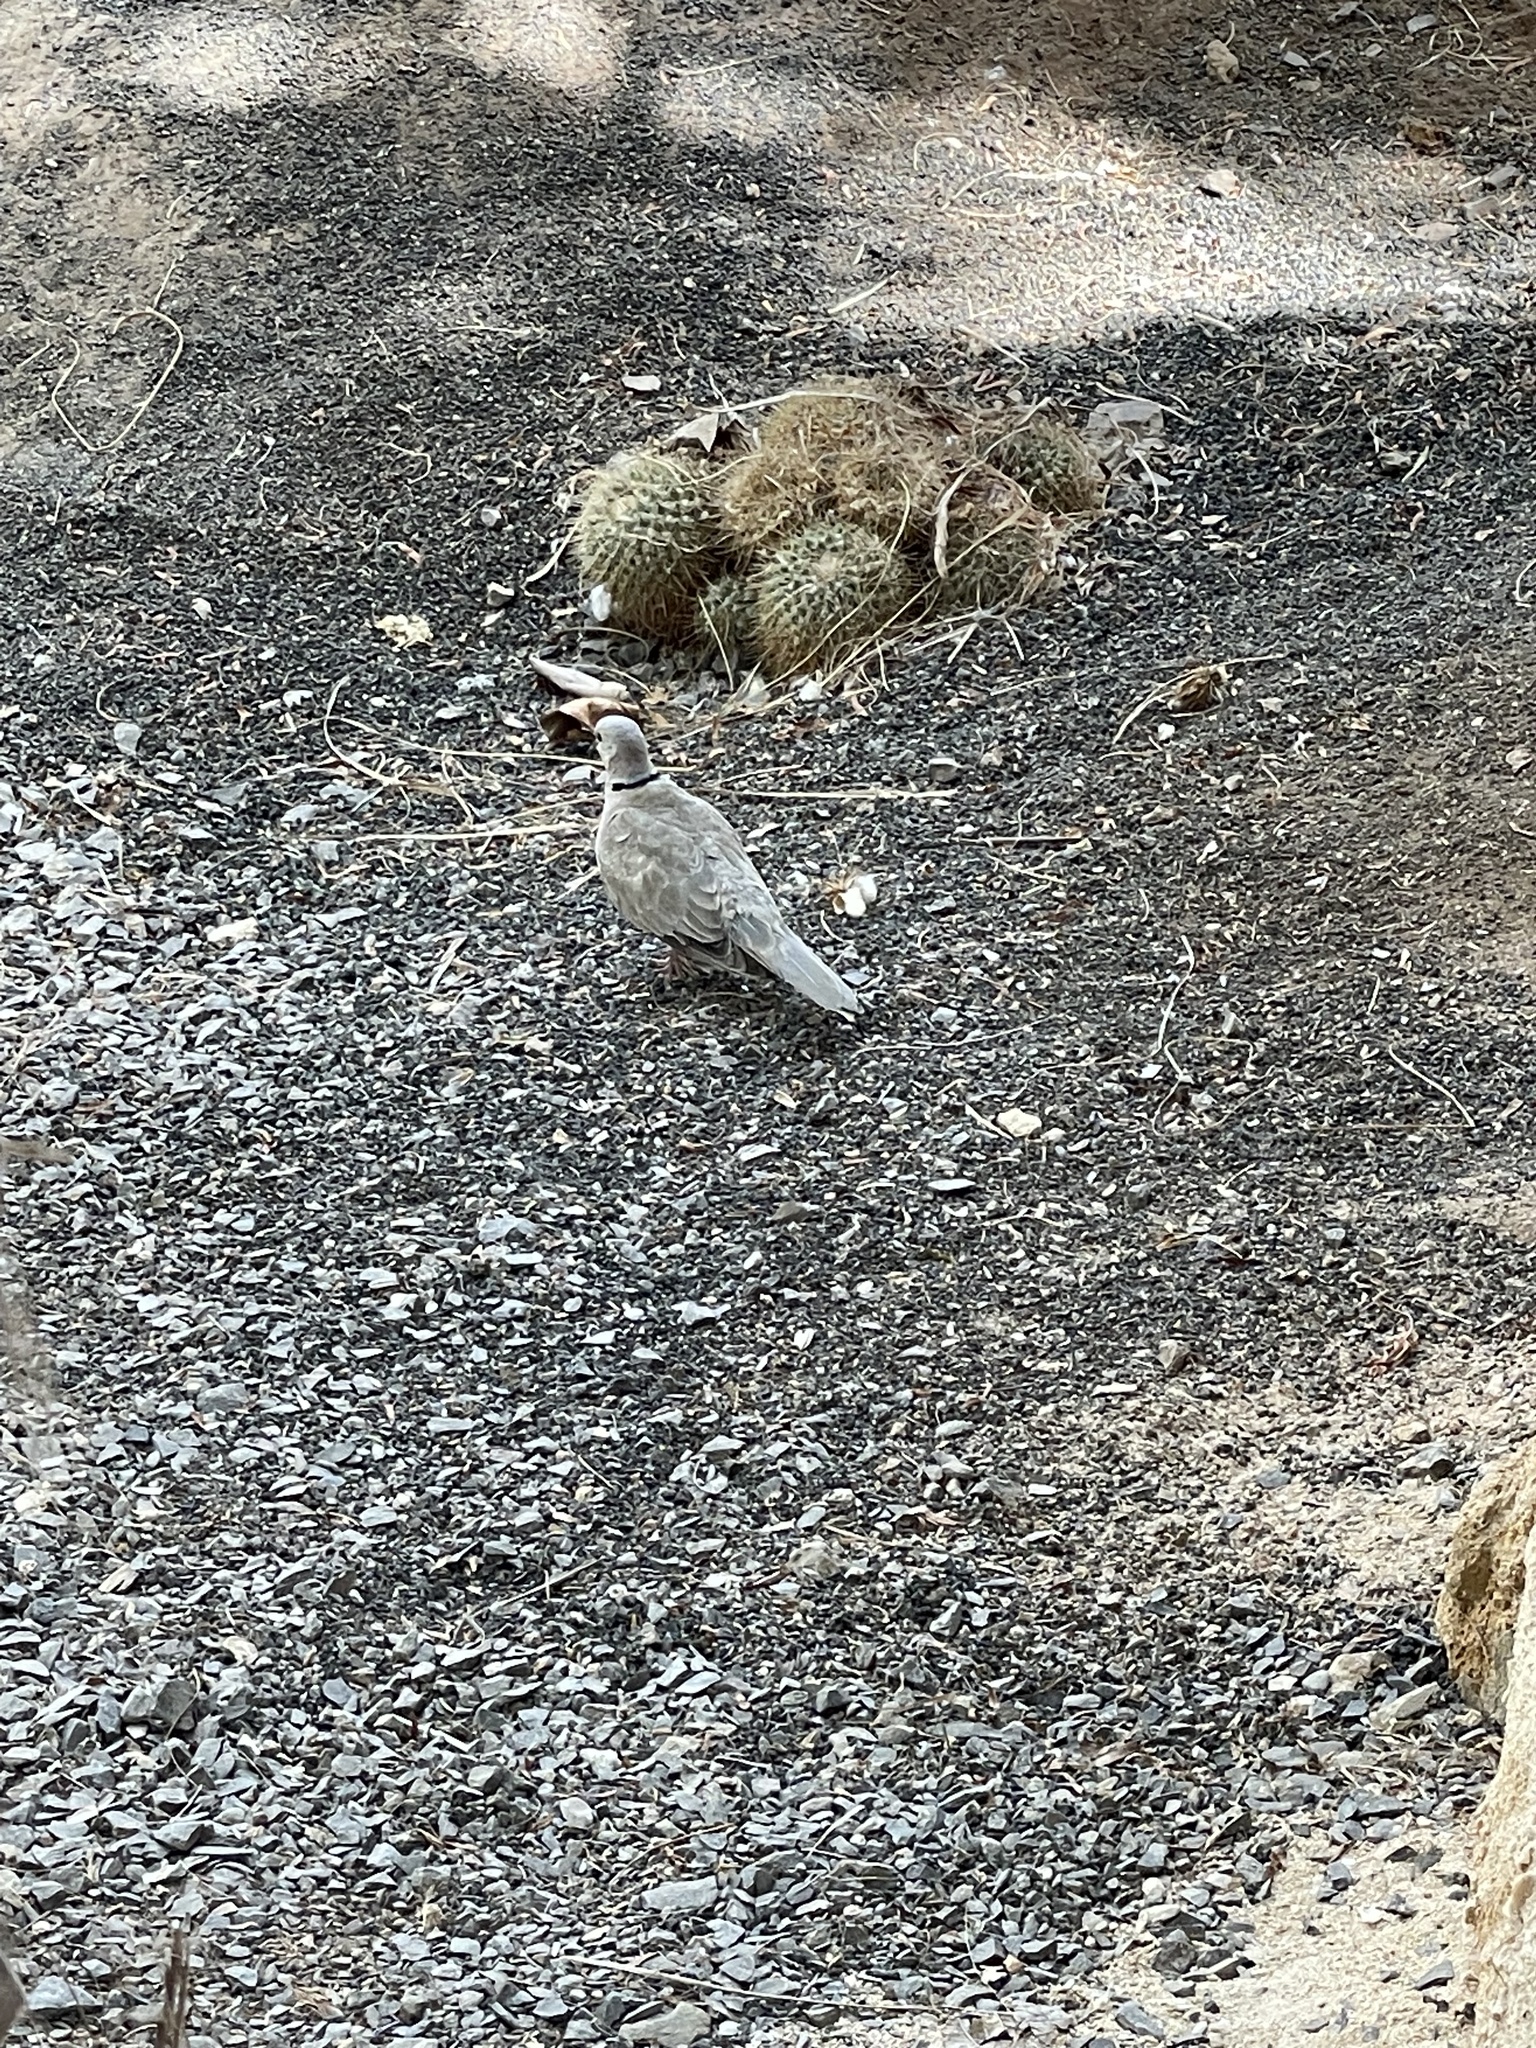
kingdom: Animalia
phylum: Chordata
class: Aves
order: Columbiformes
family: Columbidae
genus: Streptopelia
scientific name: Streptopelia decaocto
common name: Eurasian collared dove
